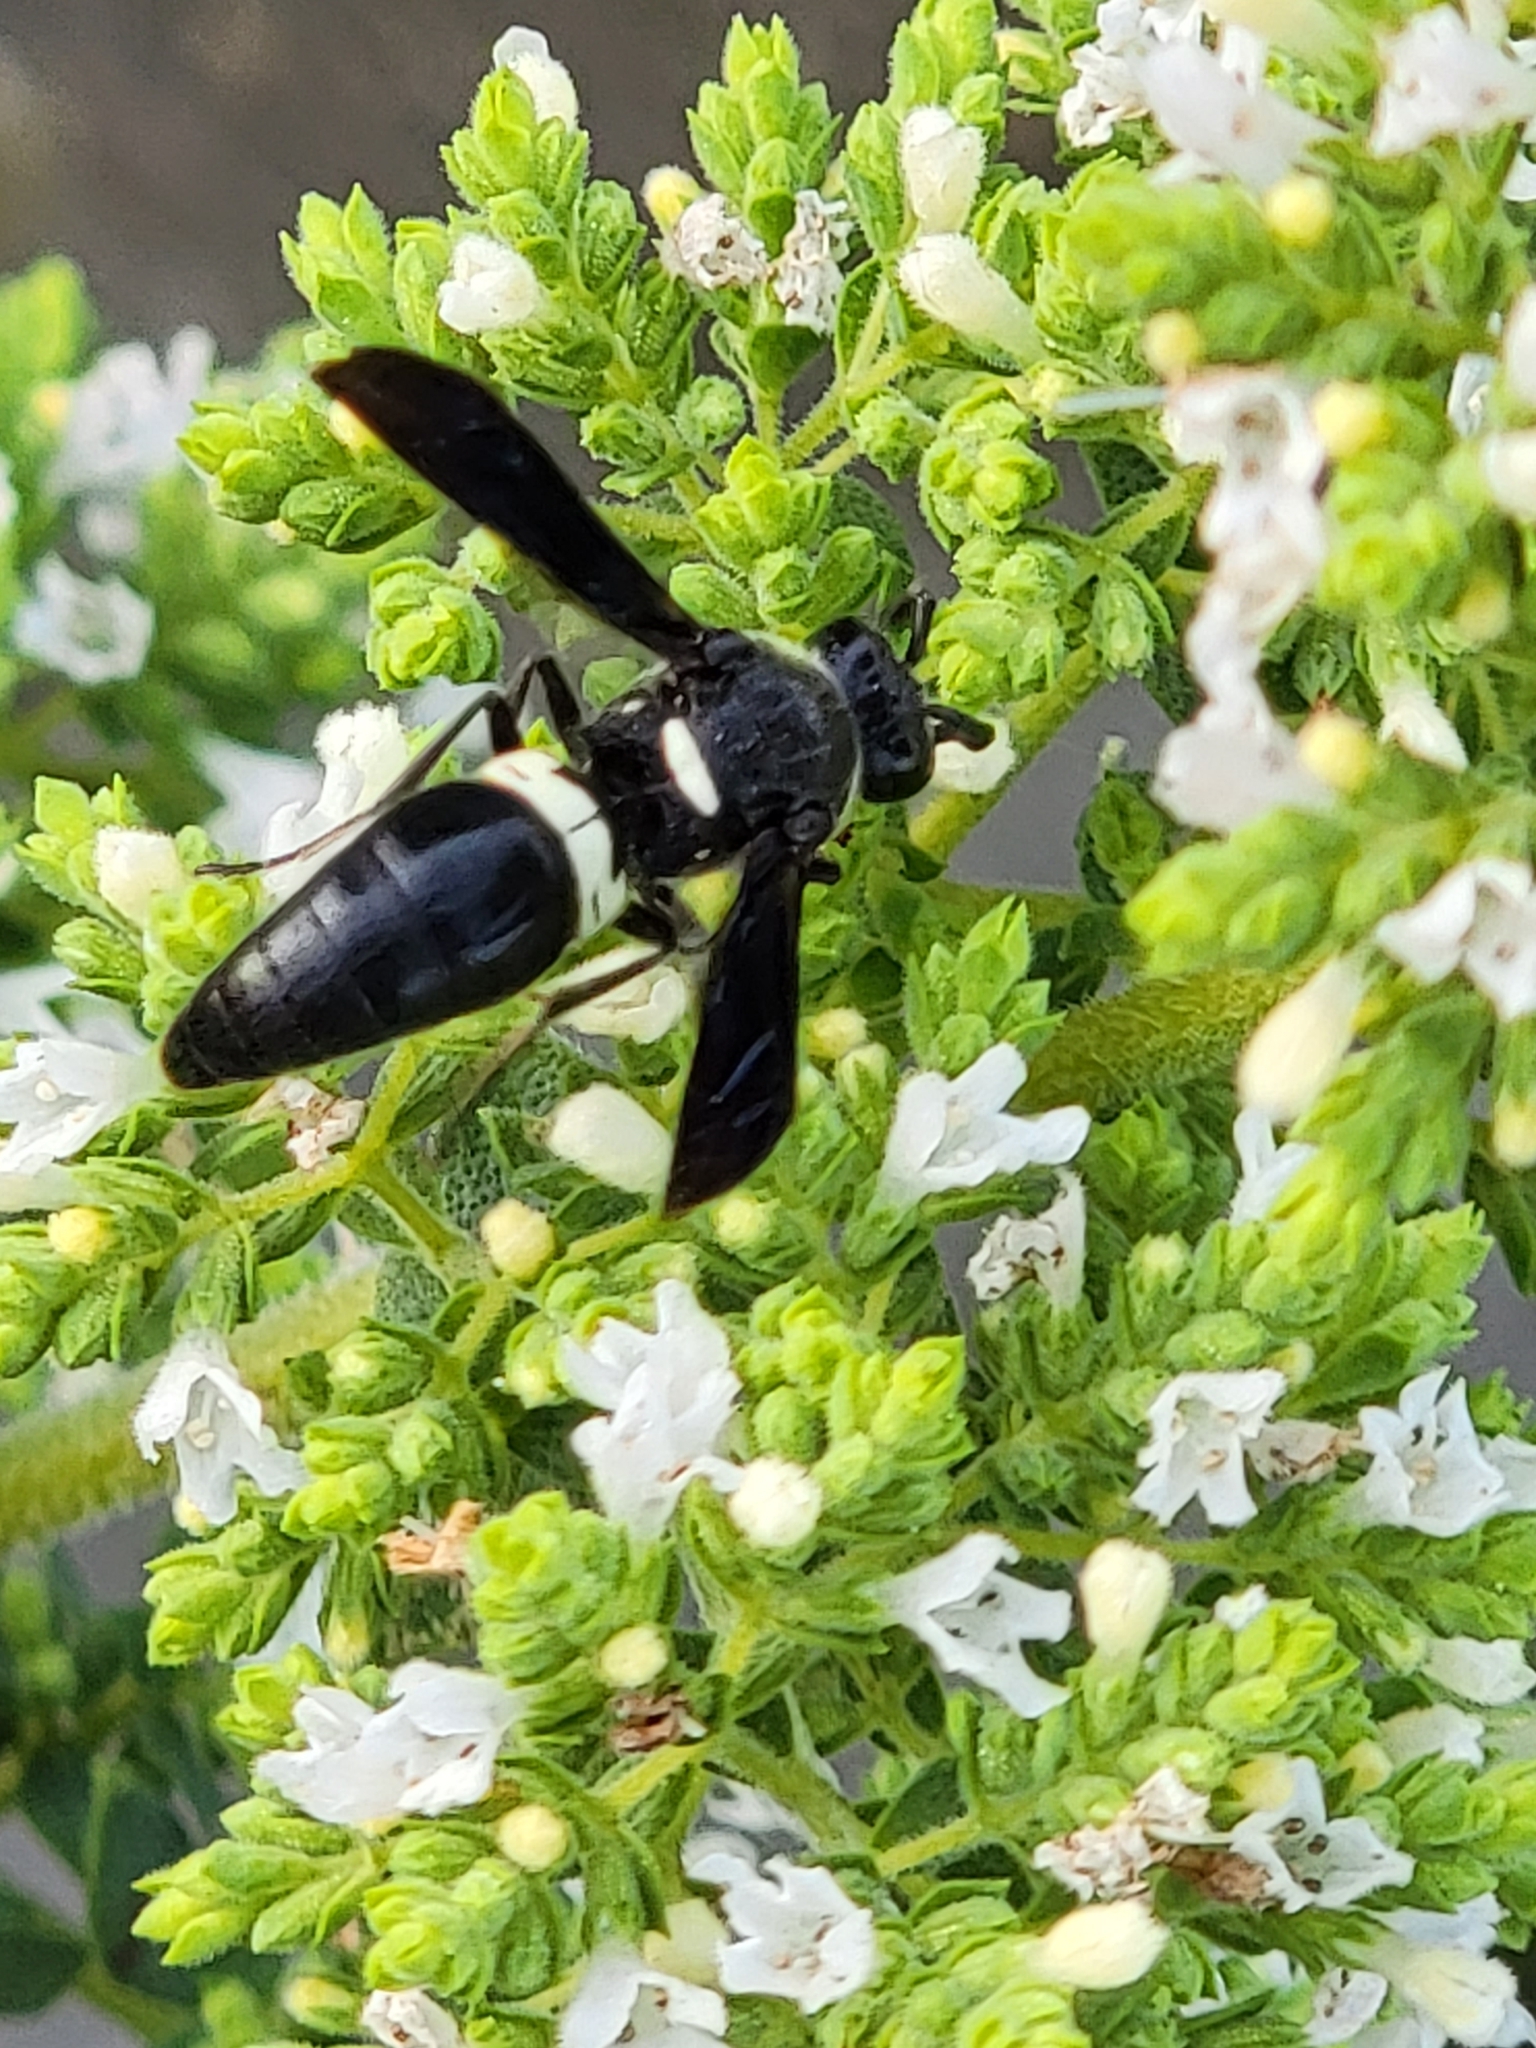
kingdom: Animalia
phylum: Arthropoda
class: Insecta
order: Hymenoptera
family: Eumenidae
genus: Monobia
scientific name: Monobia quadridens
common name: Four-toothed mason wasp
